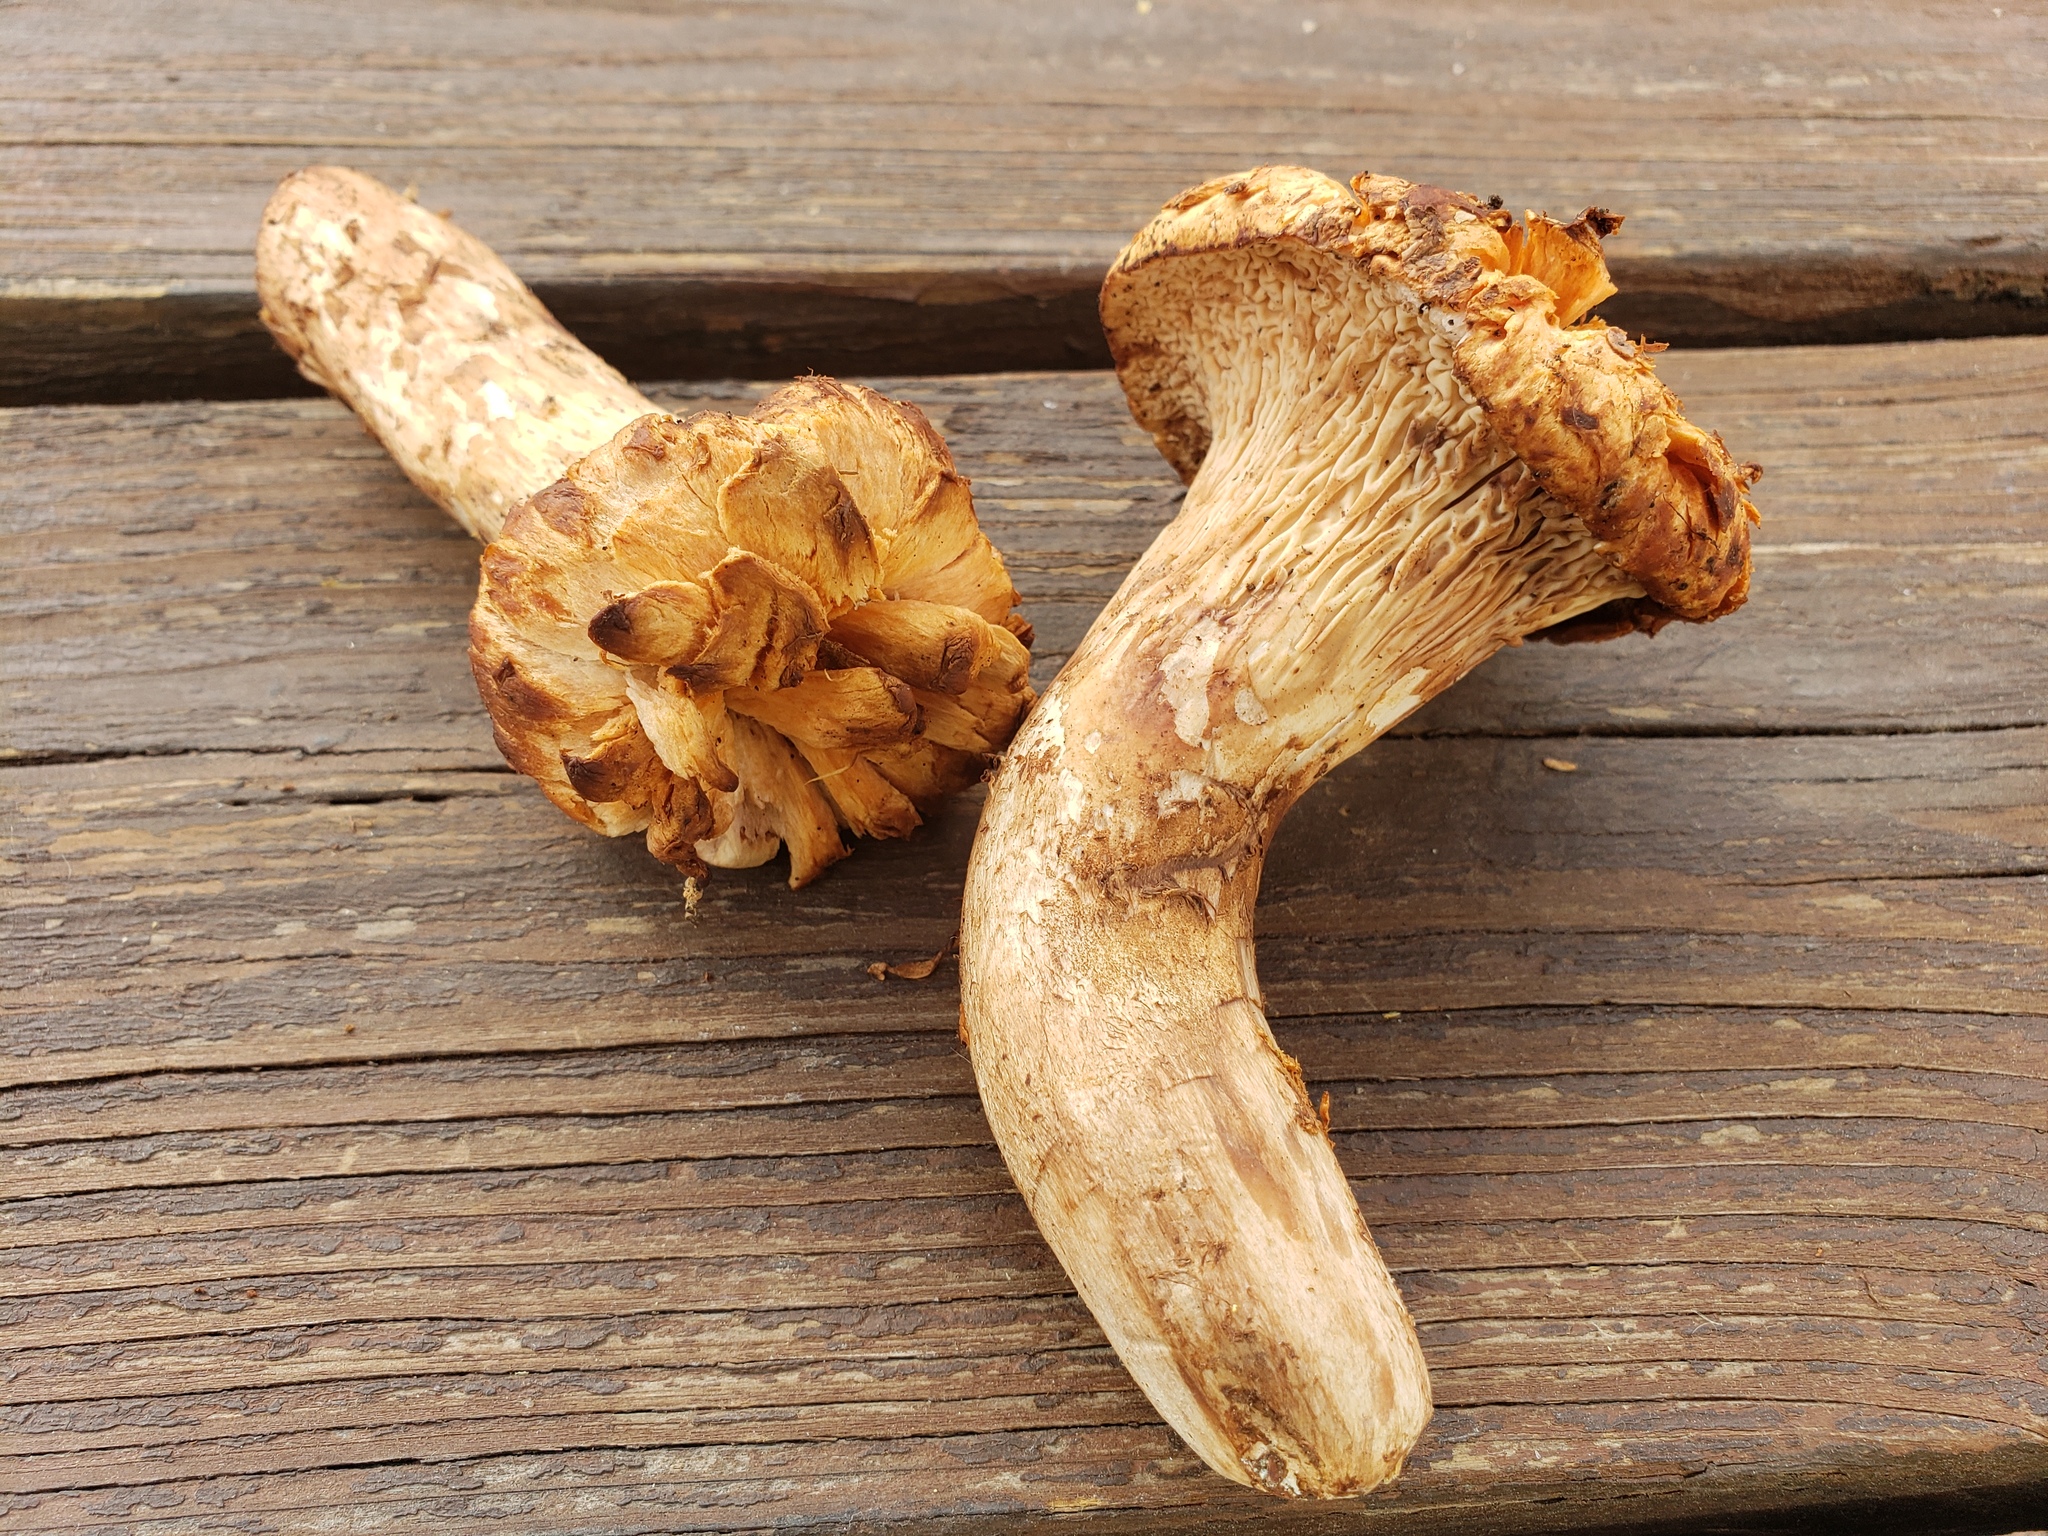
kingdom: Fungi
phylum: Basidiomycota
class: Agaricomycetes
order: Gomphales
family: Gomphaceae
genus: Turbinellus
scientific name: Turbinellus floccosus
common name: Scaly chanterelle
